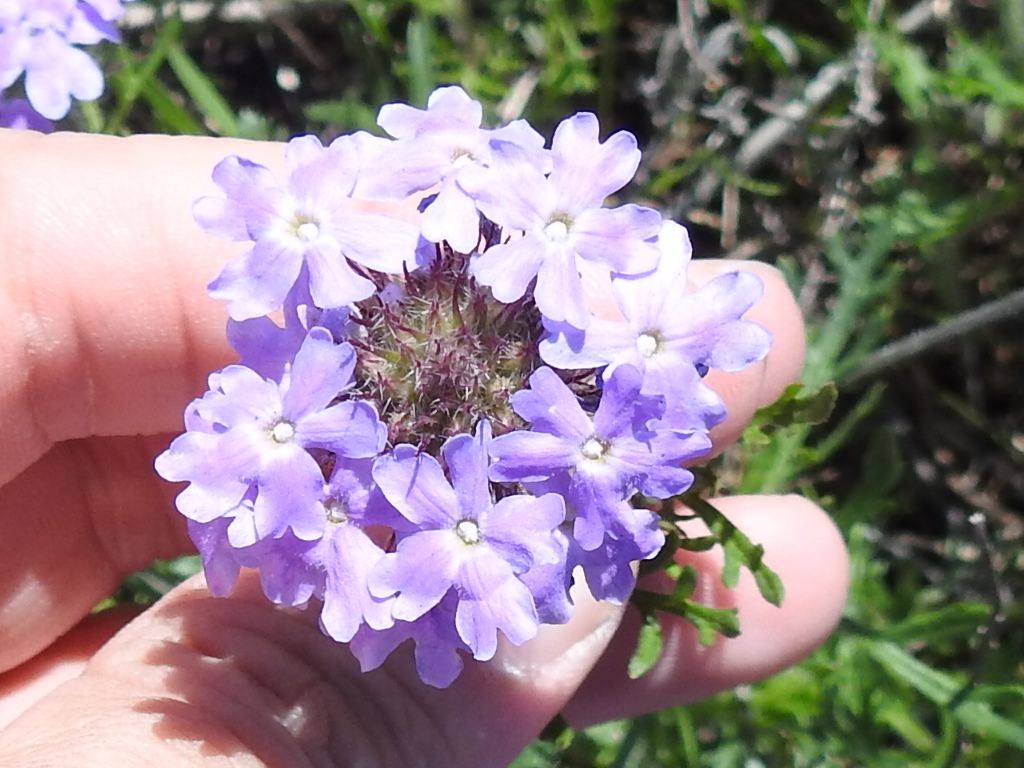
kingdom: Plantae
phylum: Tracheophyta
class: Magnoliopsida
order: Lamiales
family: Verbenaceae
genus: Verbena
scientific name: Verbena bipinnatifida
